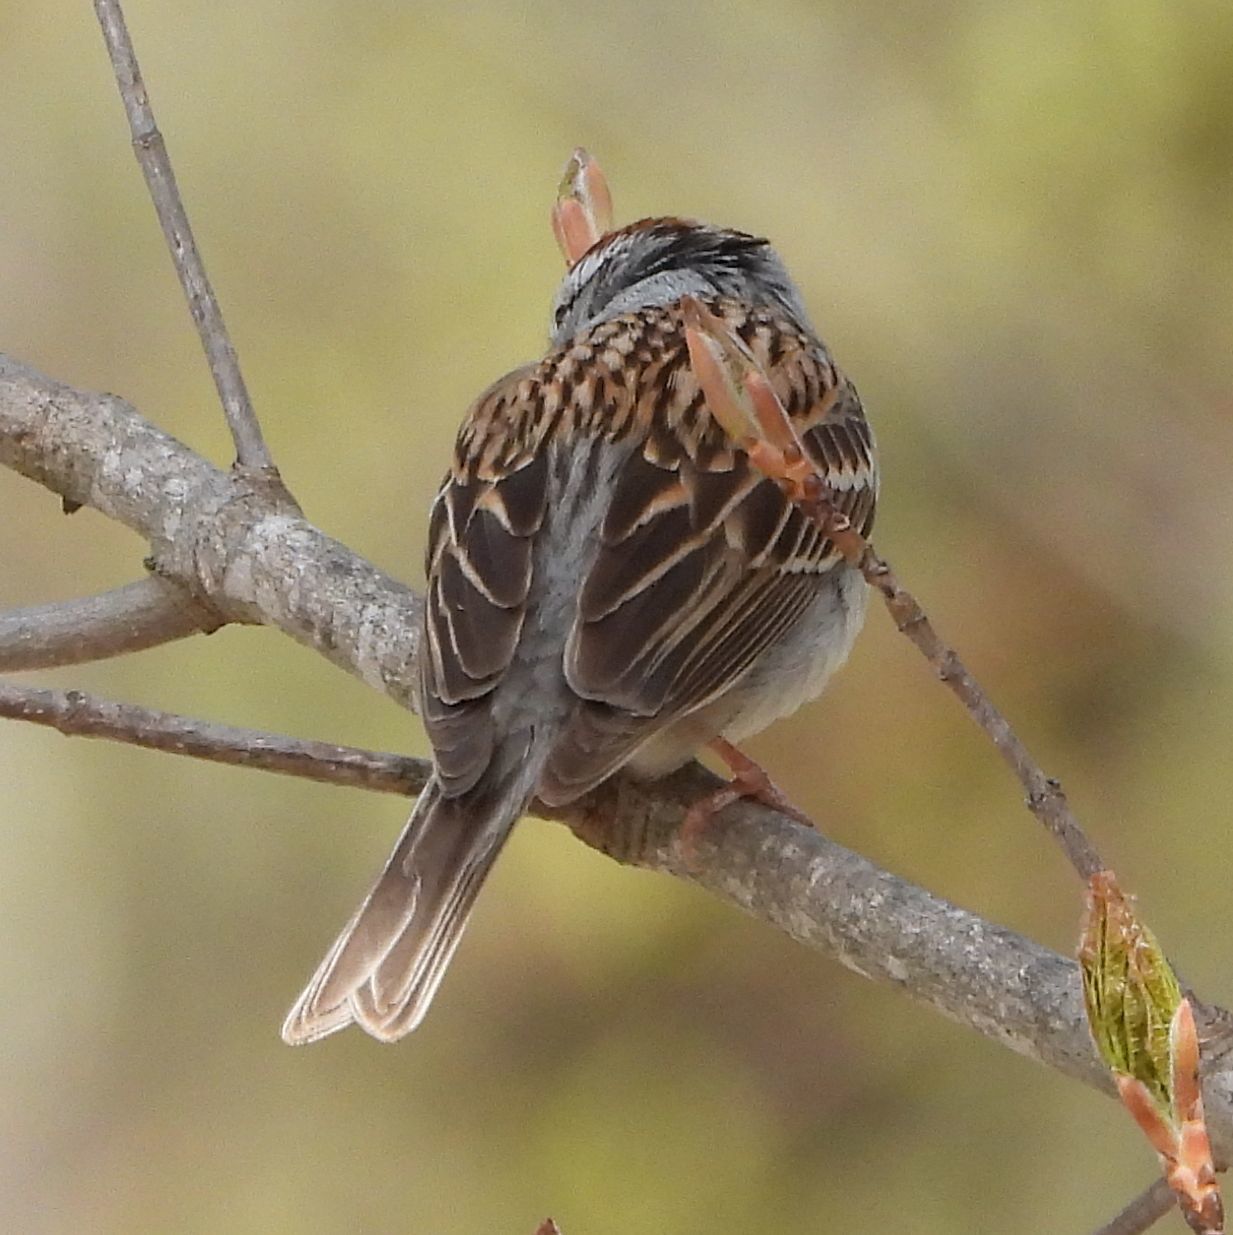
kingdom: Animalia
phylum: Chordata
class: Aves
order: Passeriformes
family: Passerellidae
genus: Spizella
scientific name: Spizella passerina
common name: Chipping sparrow
